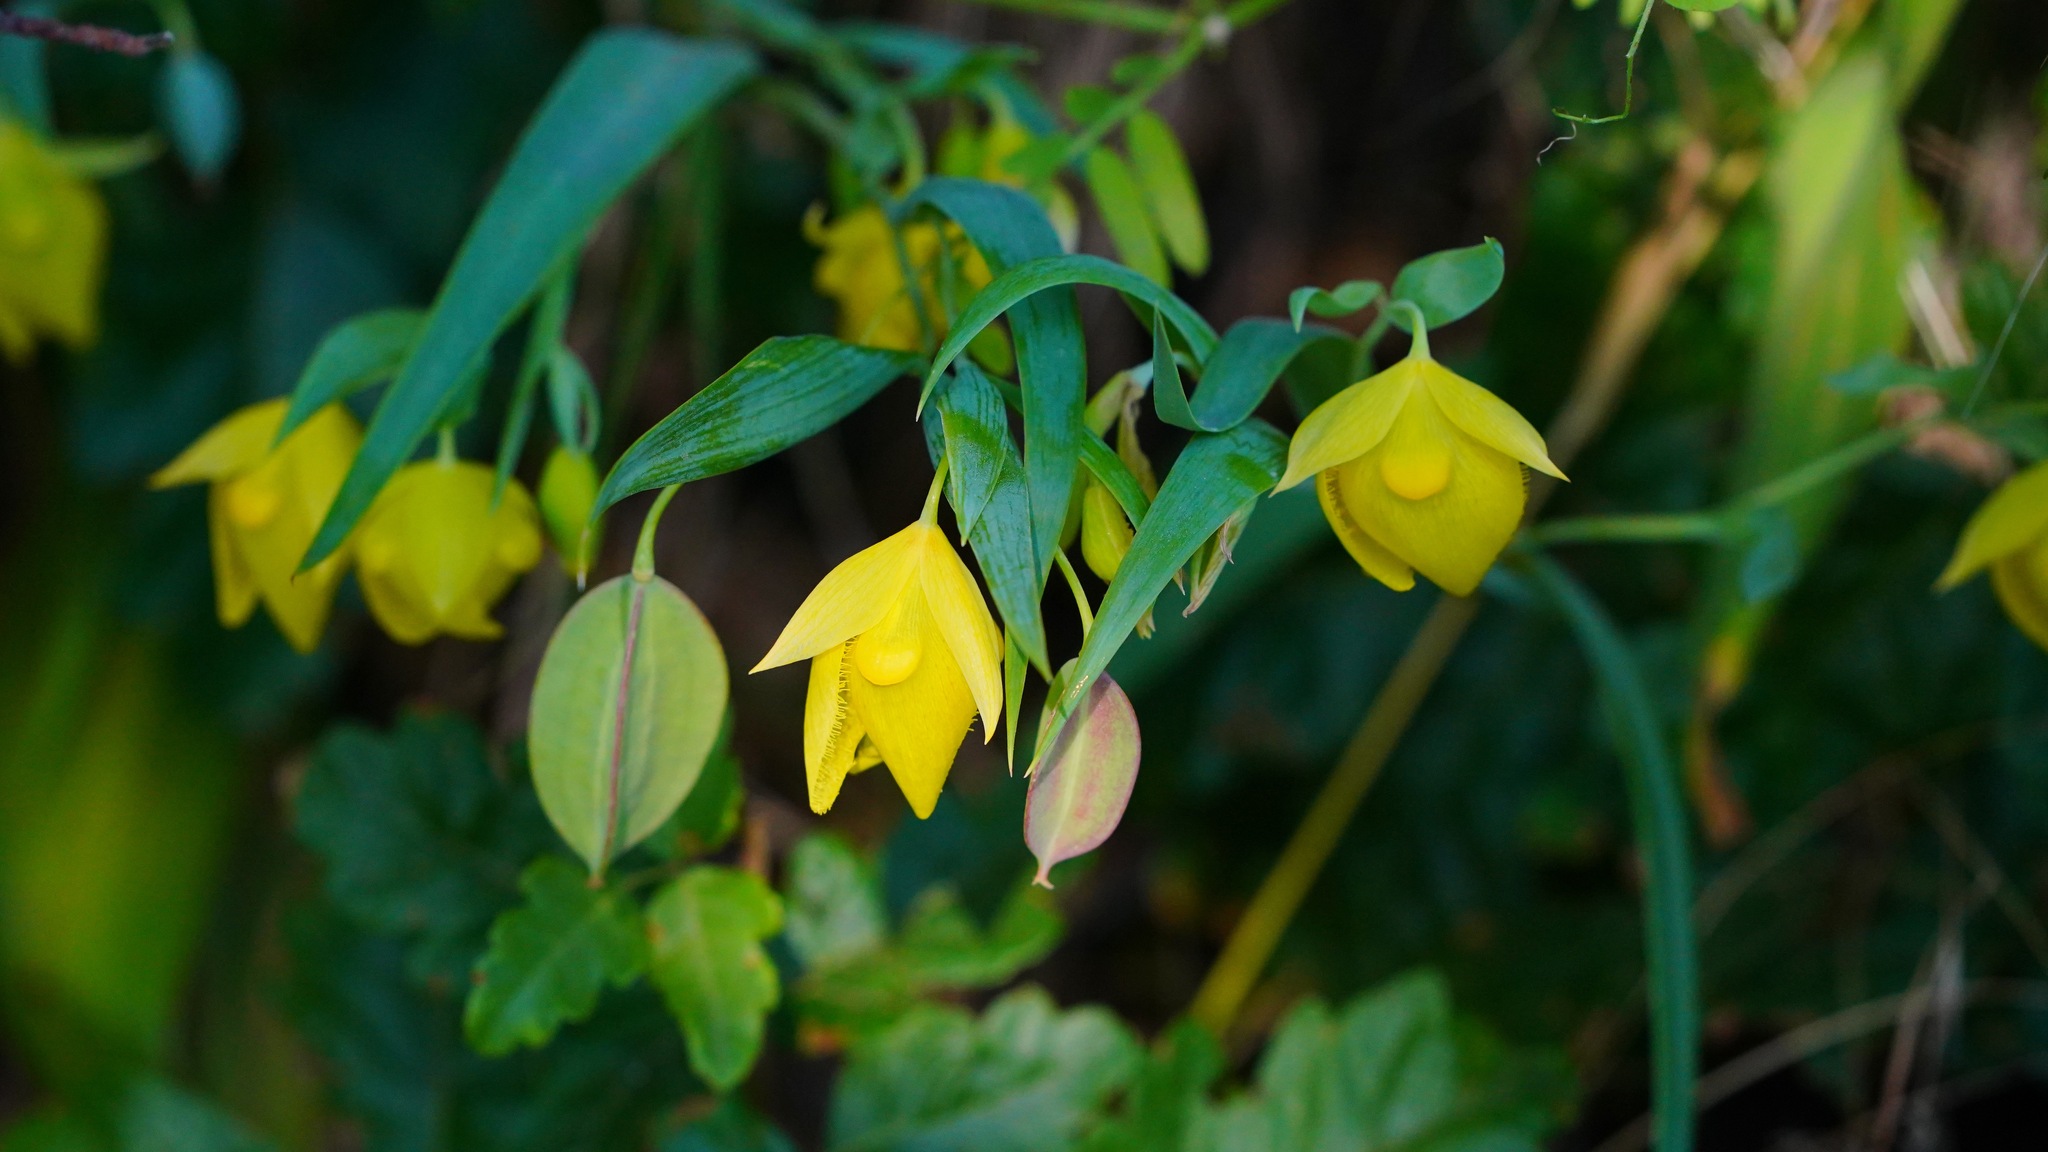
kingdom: Plantae
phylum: Tracheophyta
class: Liliopsida
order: Liliales
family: Liliaceae
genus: Calochortus
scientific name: Calochortus pulchellus
